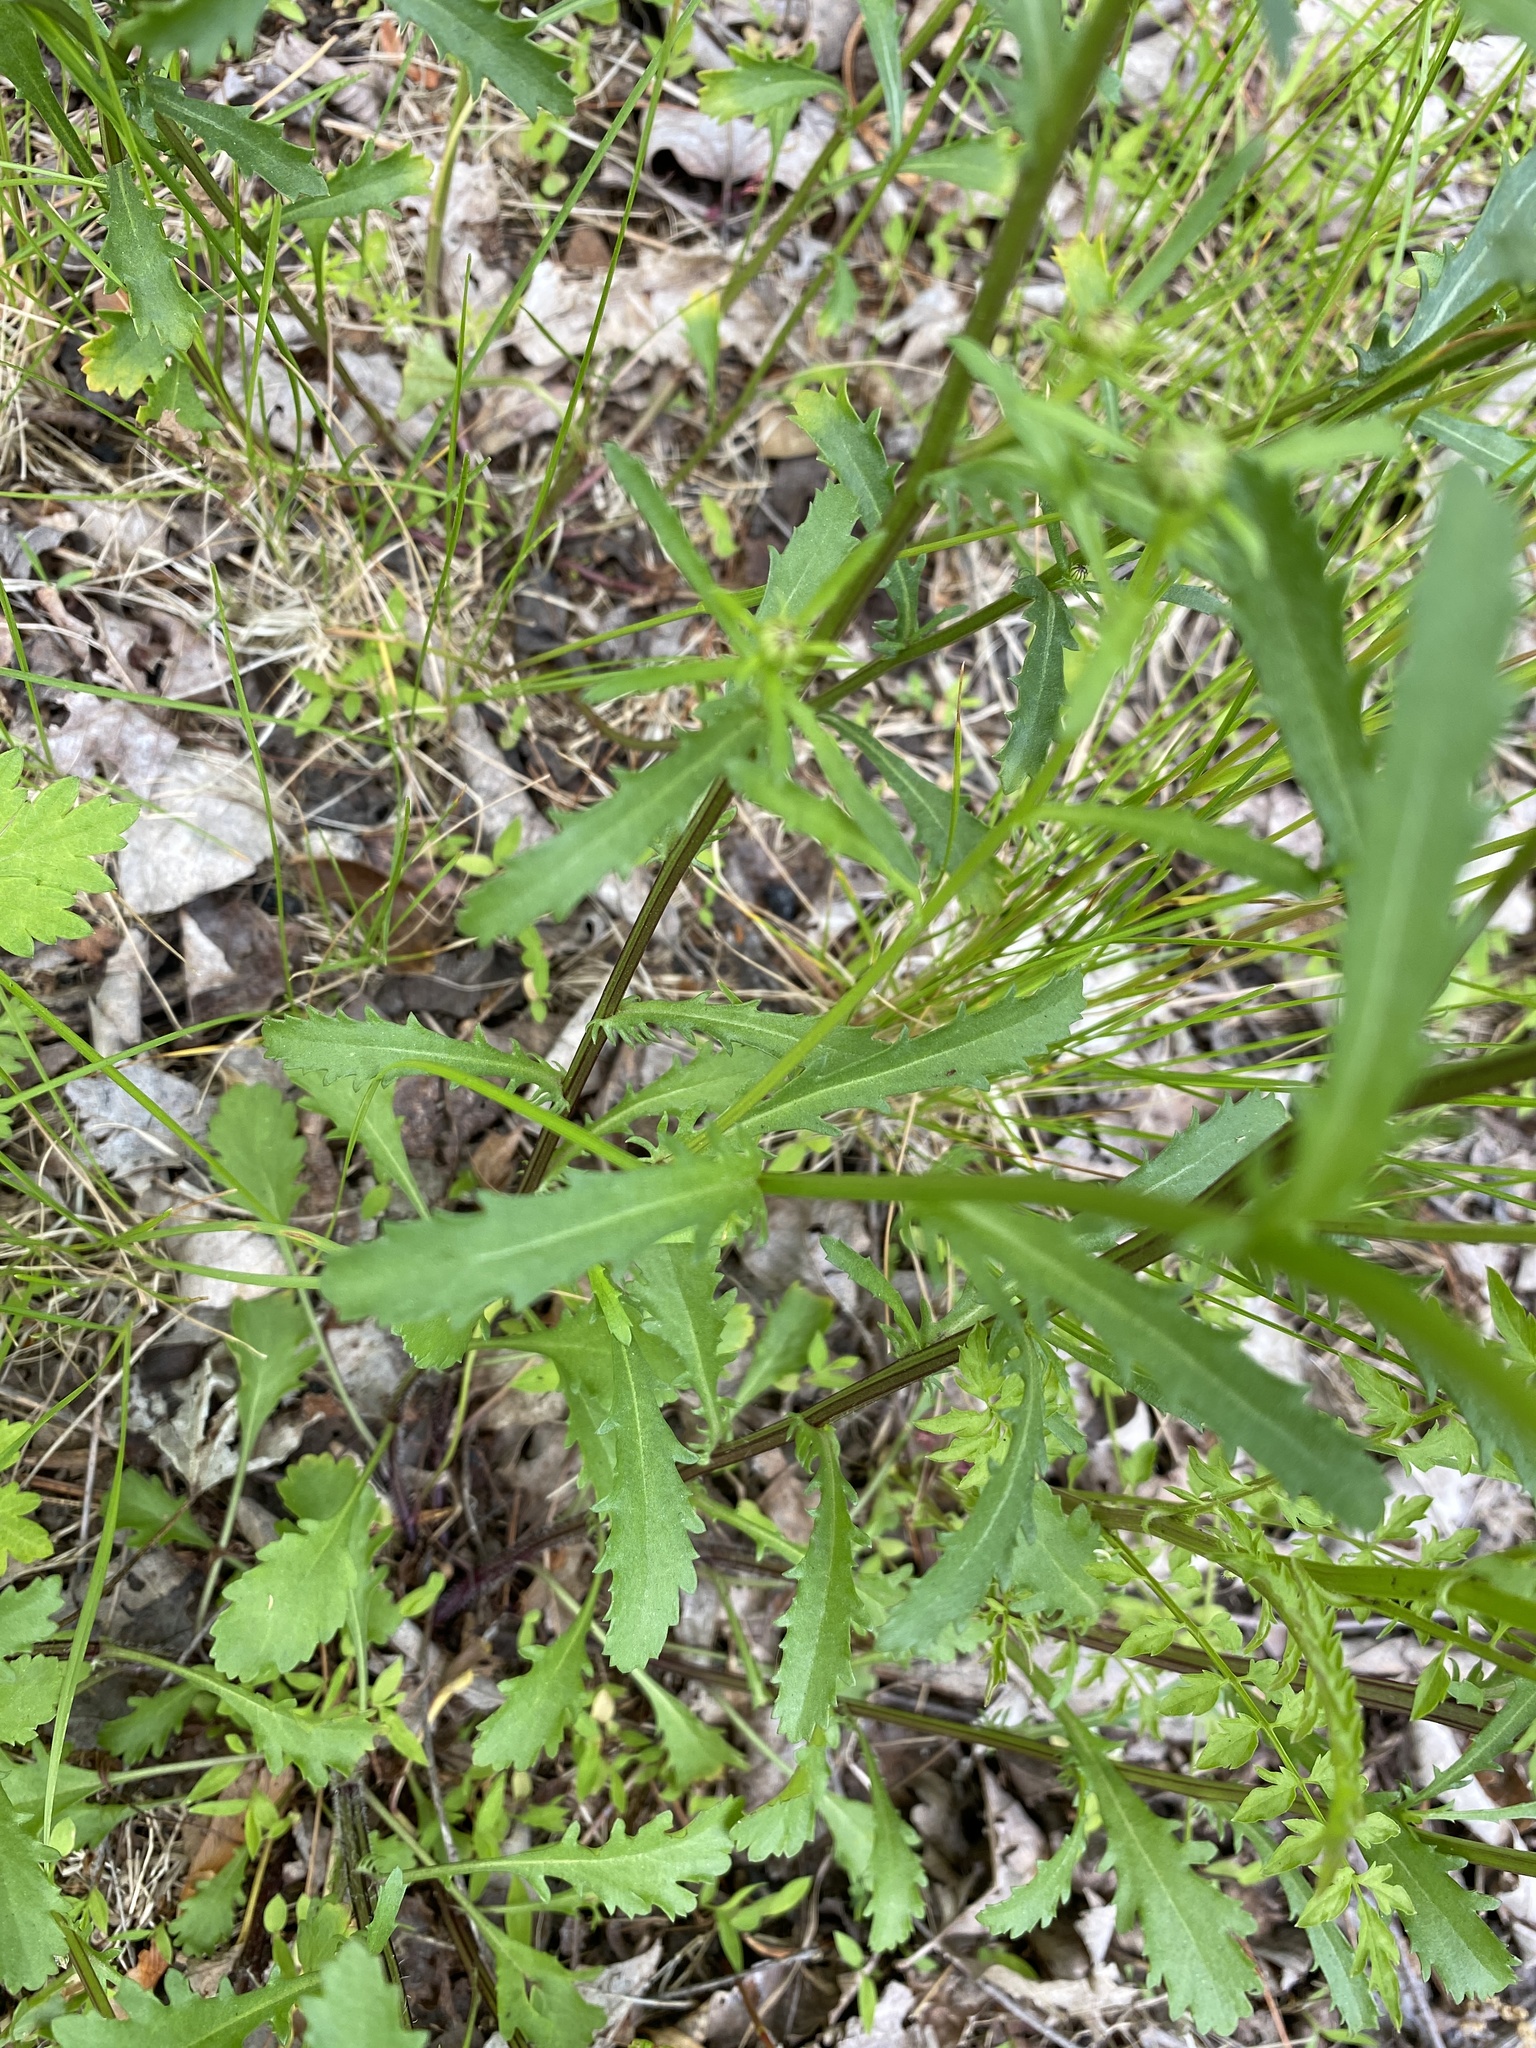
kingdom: Plantae
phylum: Tracheophyta
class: Magnoliopsida
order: Asterales
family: Asteraceae
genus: Leucanthemum
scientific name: Leucanthemum vulgare
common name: Oxeye daisy
